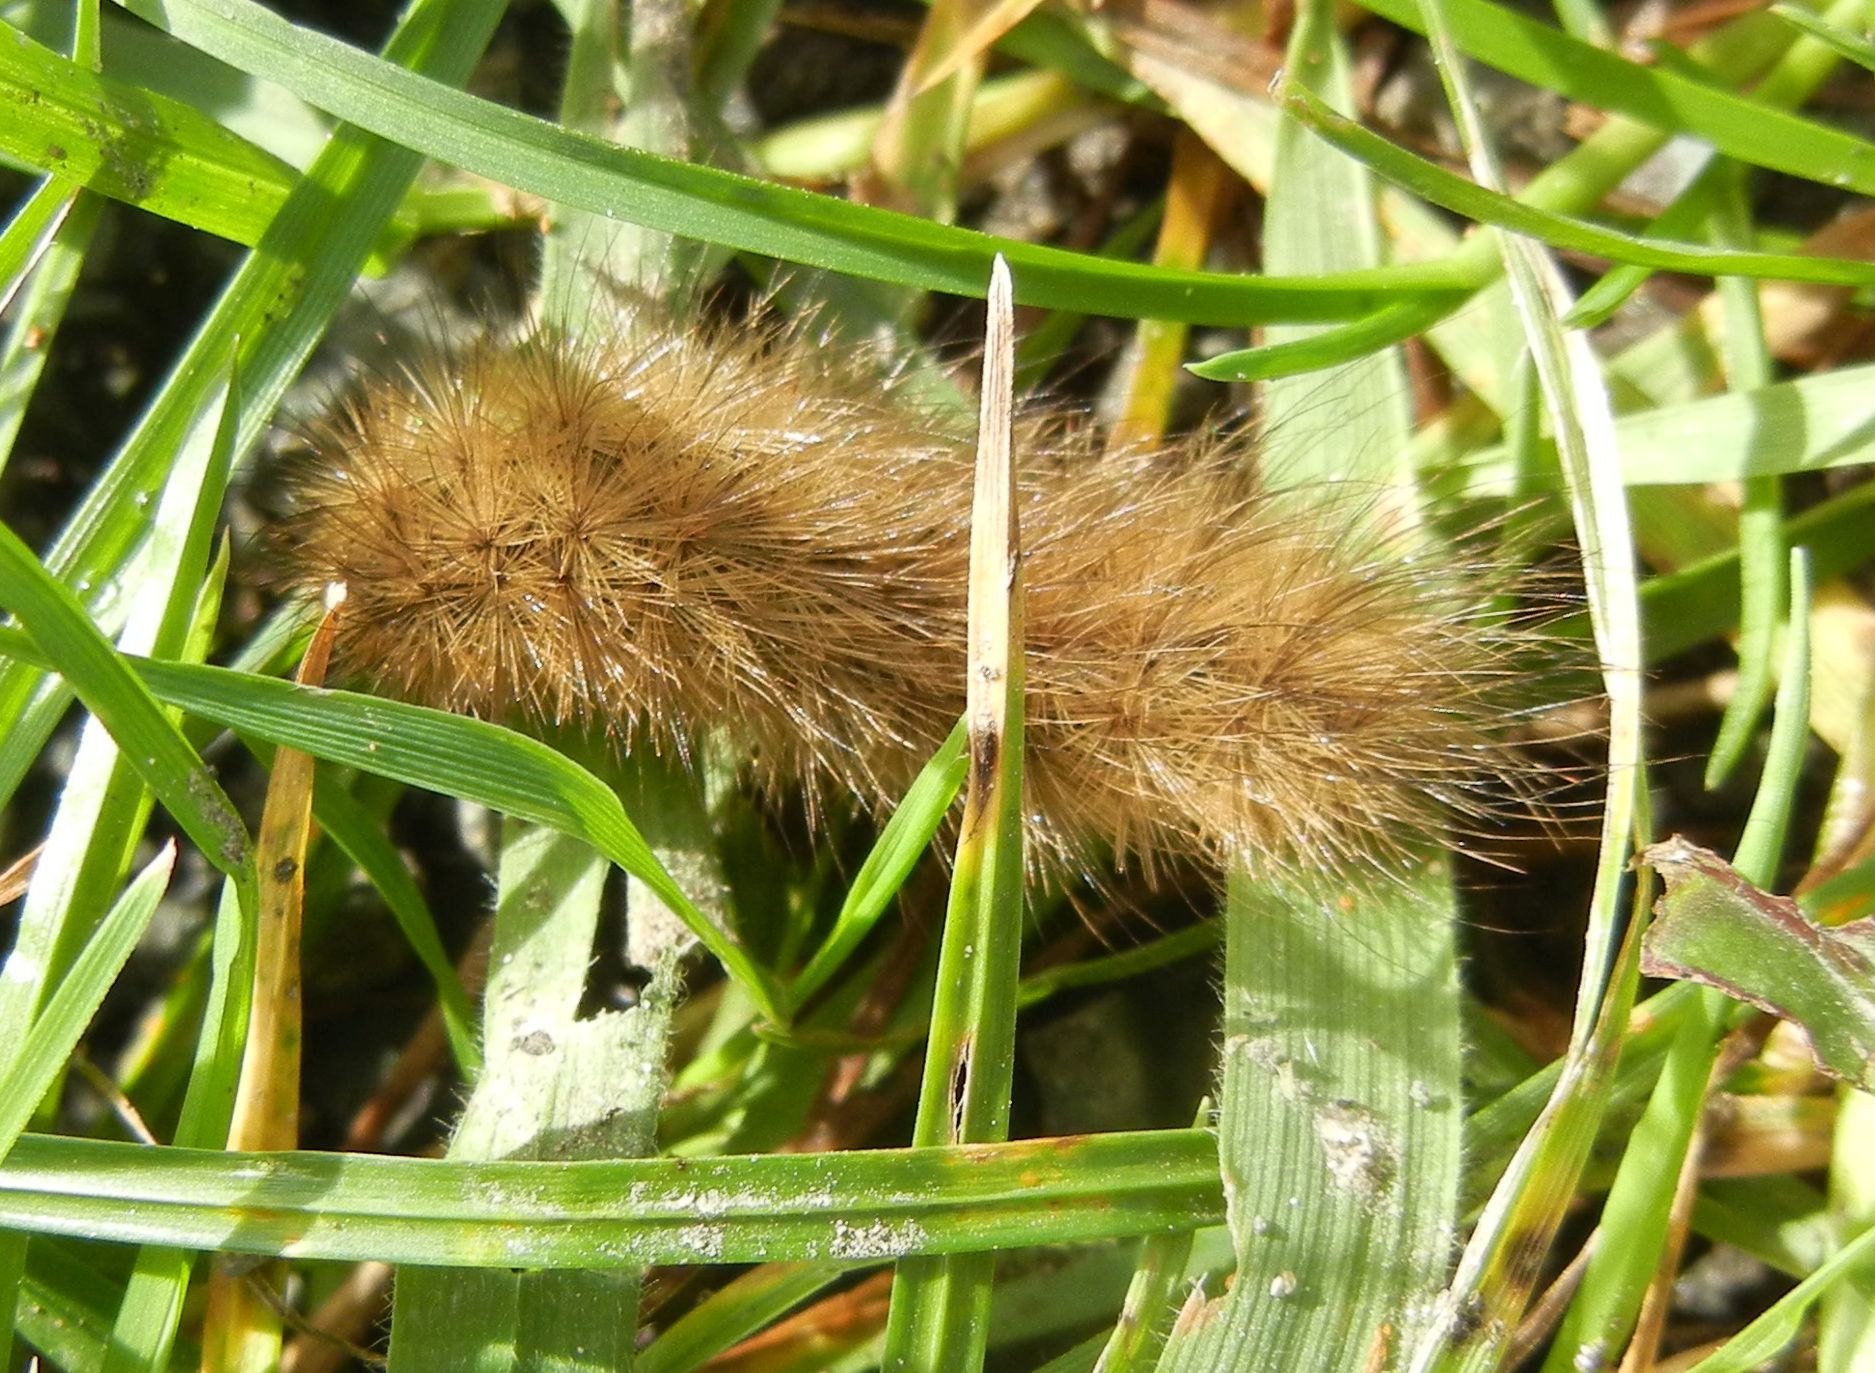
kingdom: Animalia
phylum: Arthropoda
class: Insecta
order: Lepidoptera
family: Erebidae
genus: Phragmatobia
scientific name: Phragmatobia fuliginosa
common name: Ruby tiger
